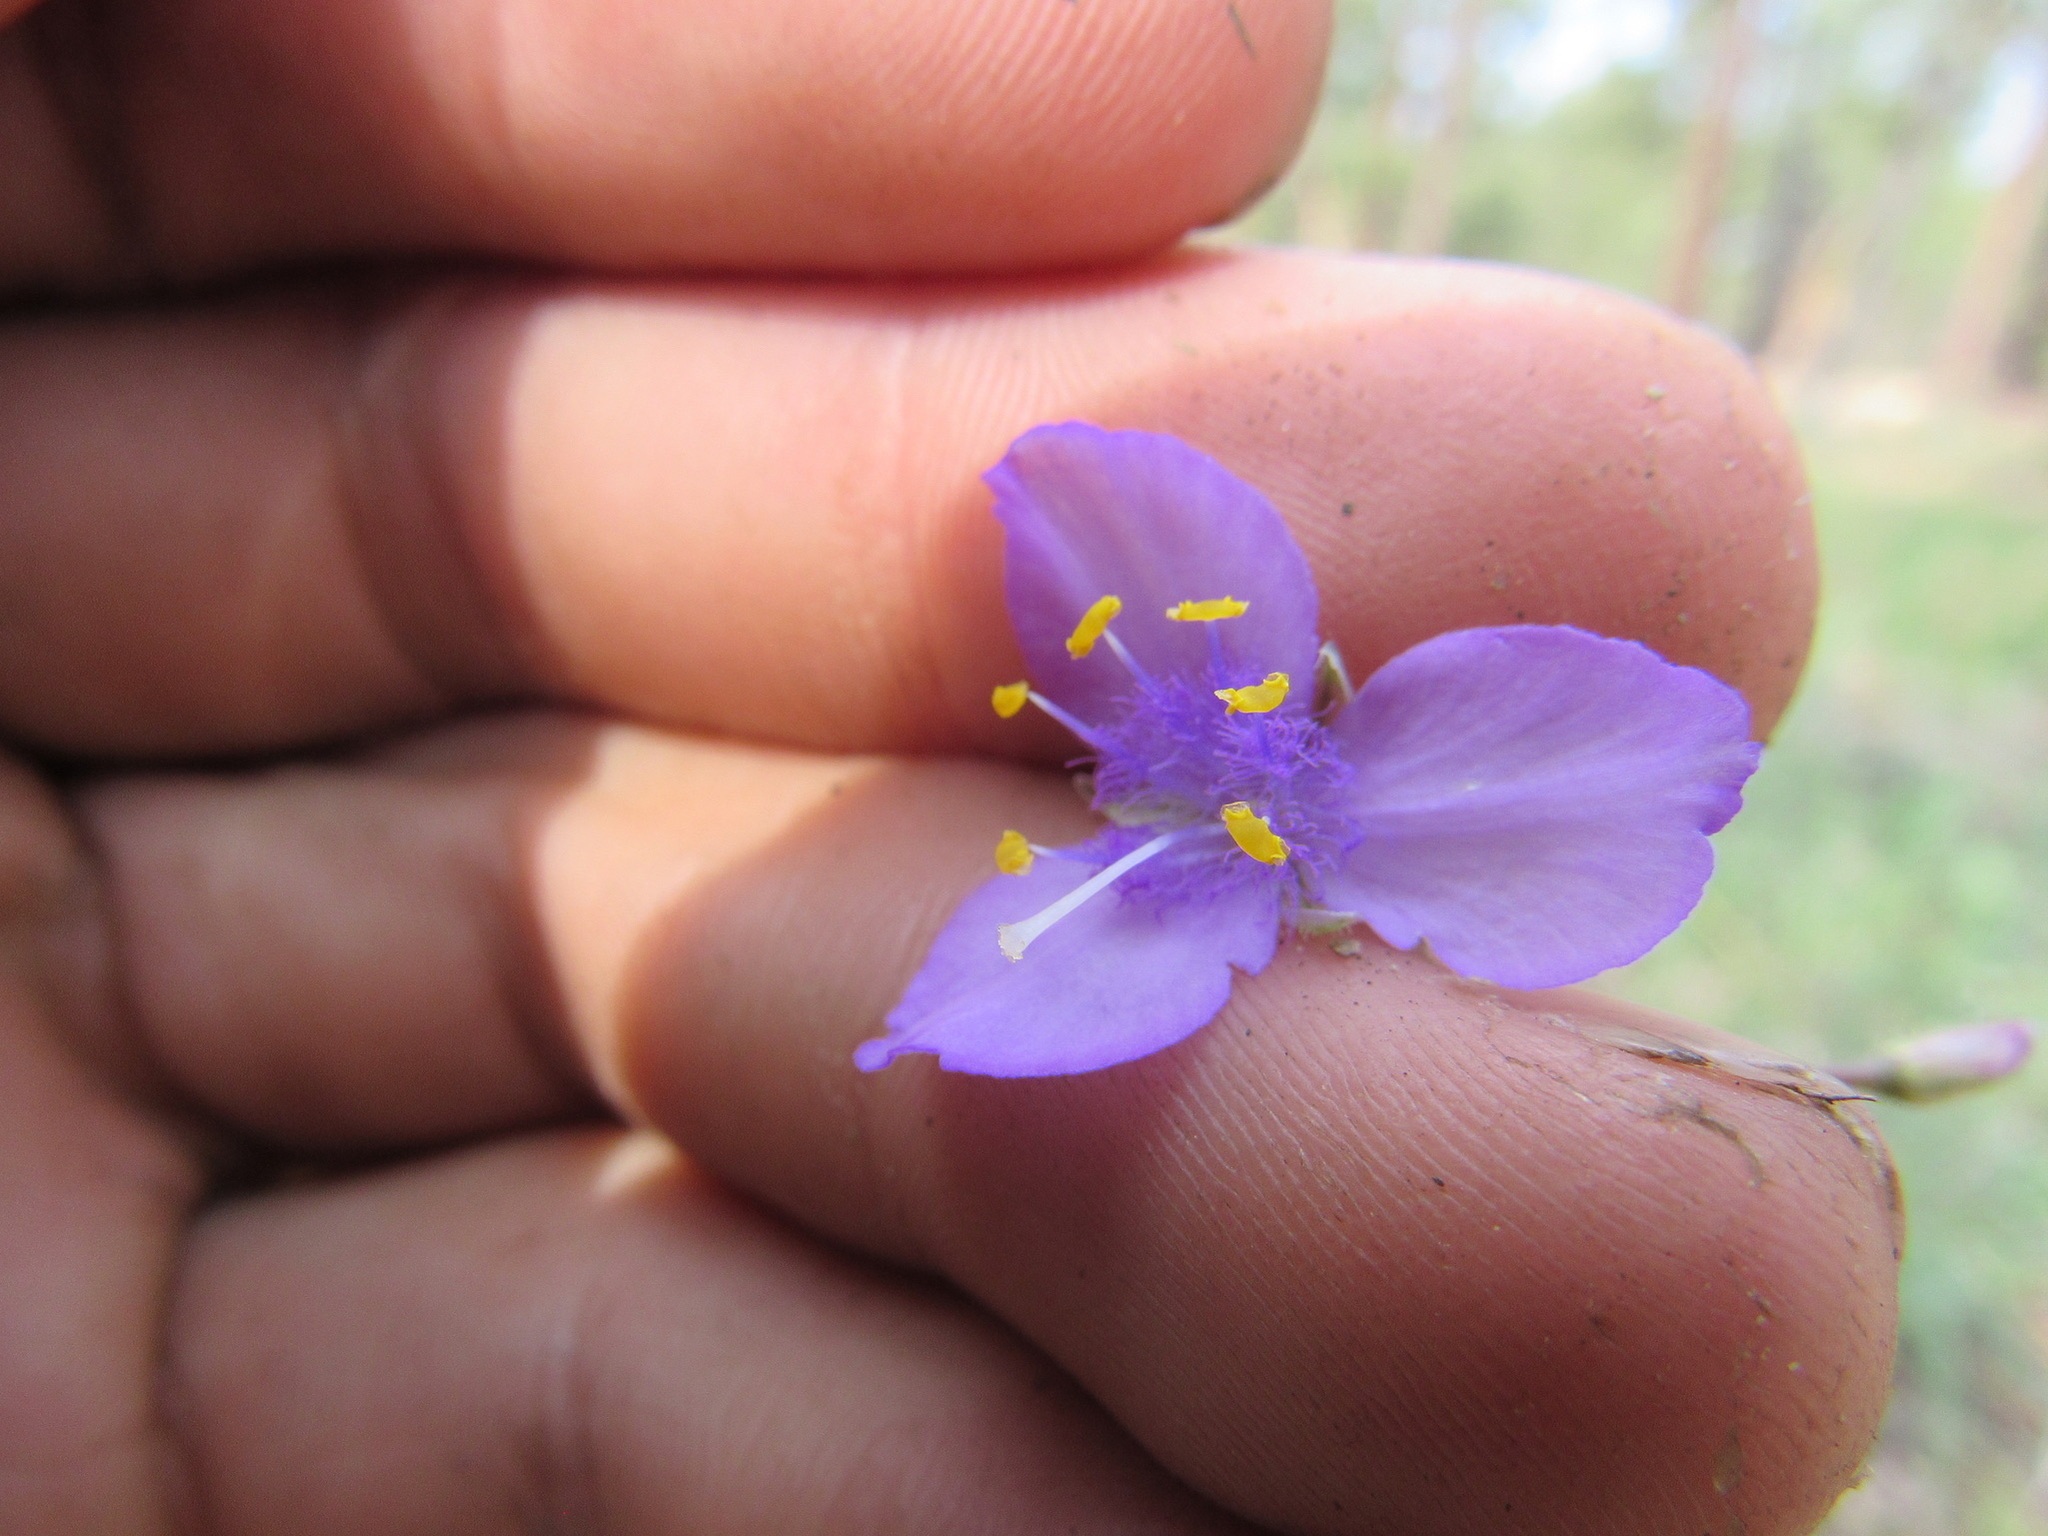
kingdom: Plantae
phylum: Tracheophyta
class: Liliopsida
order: Commelinales
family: Commelinaceae
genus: Tradescantia
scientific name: Tradescantia pinetorum
